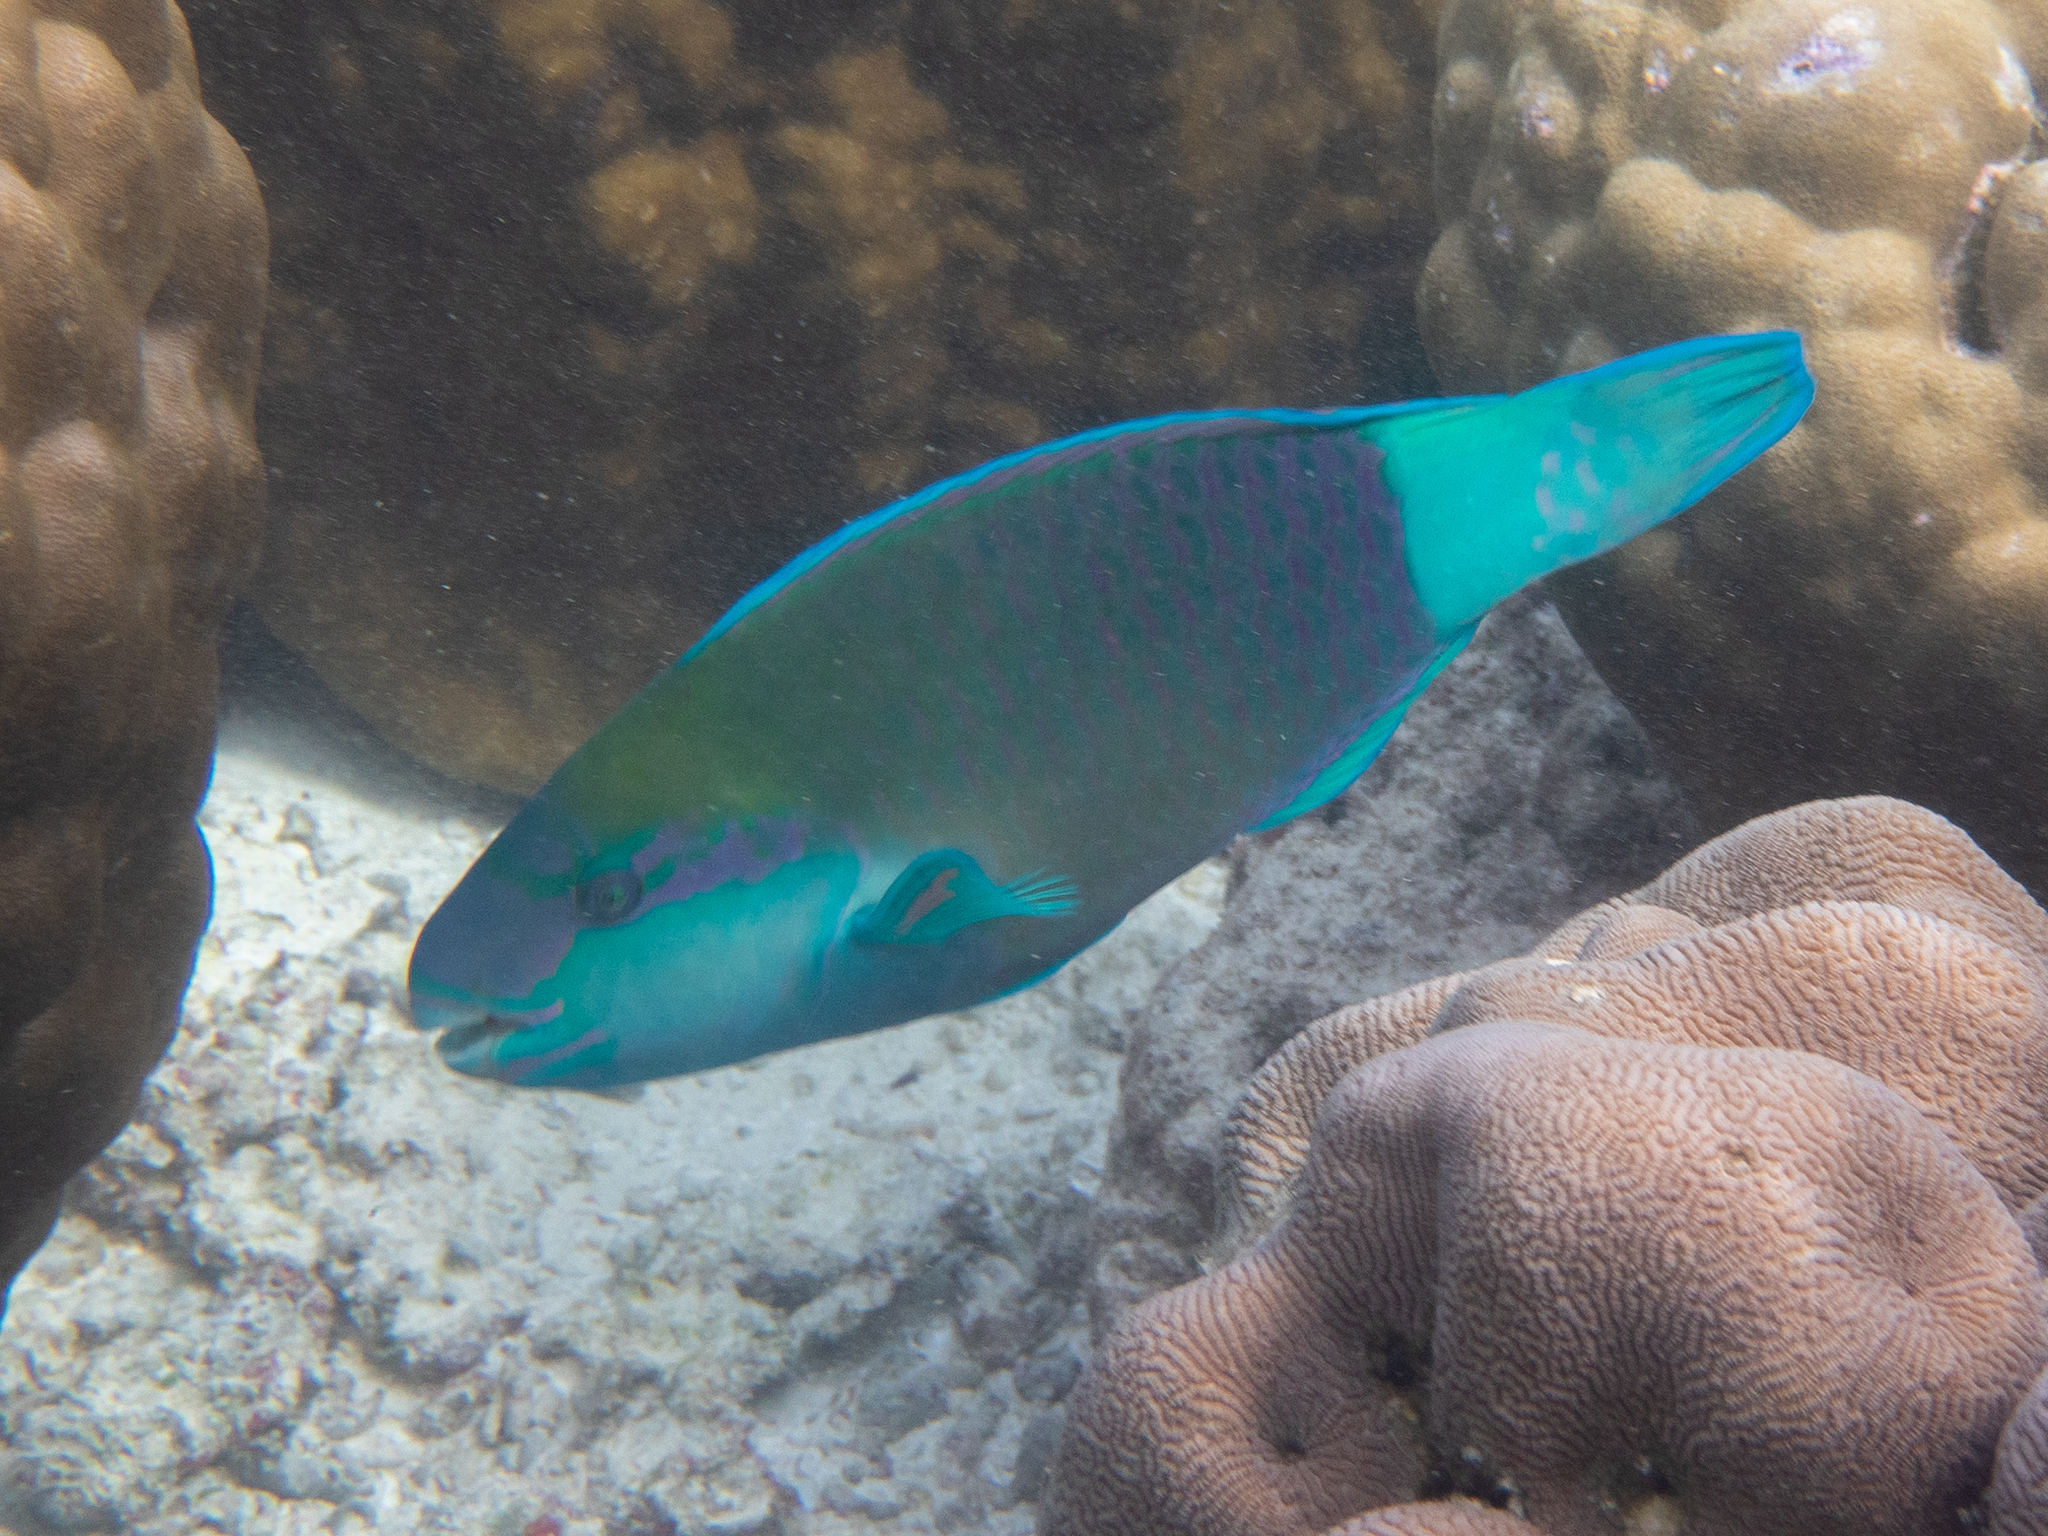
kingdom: Animalia
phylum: Chordata
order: Perciformes
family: Scaridae
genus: Chlorurus
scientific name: Chlorurus sordidus
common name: Bullethead parrotfish
